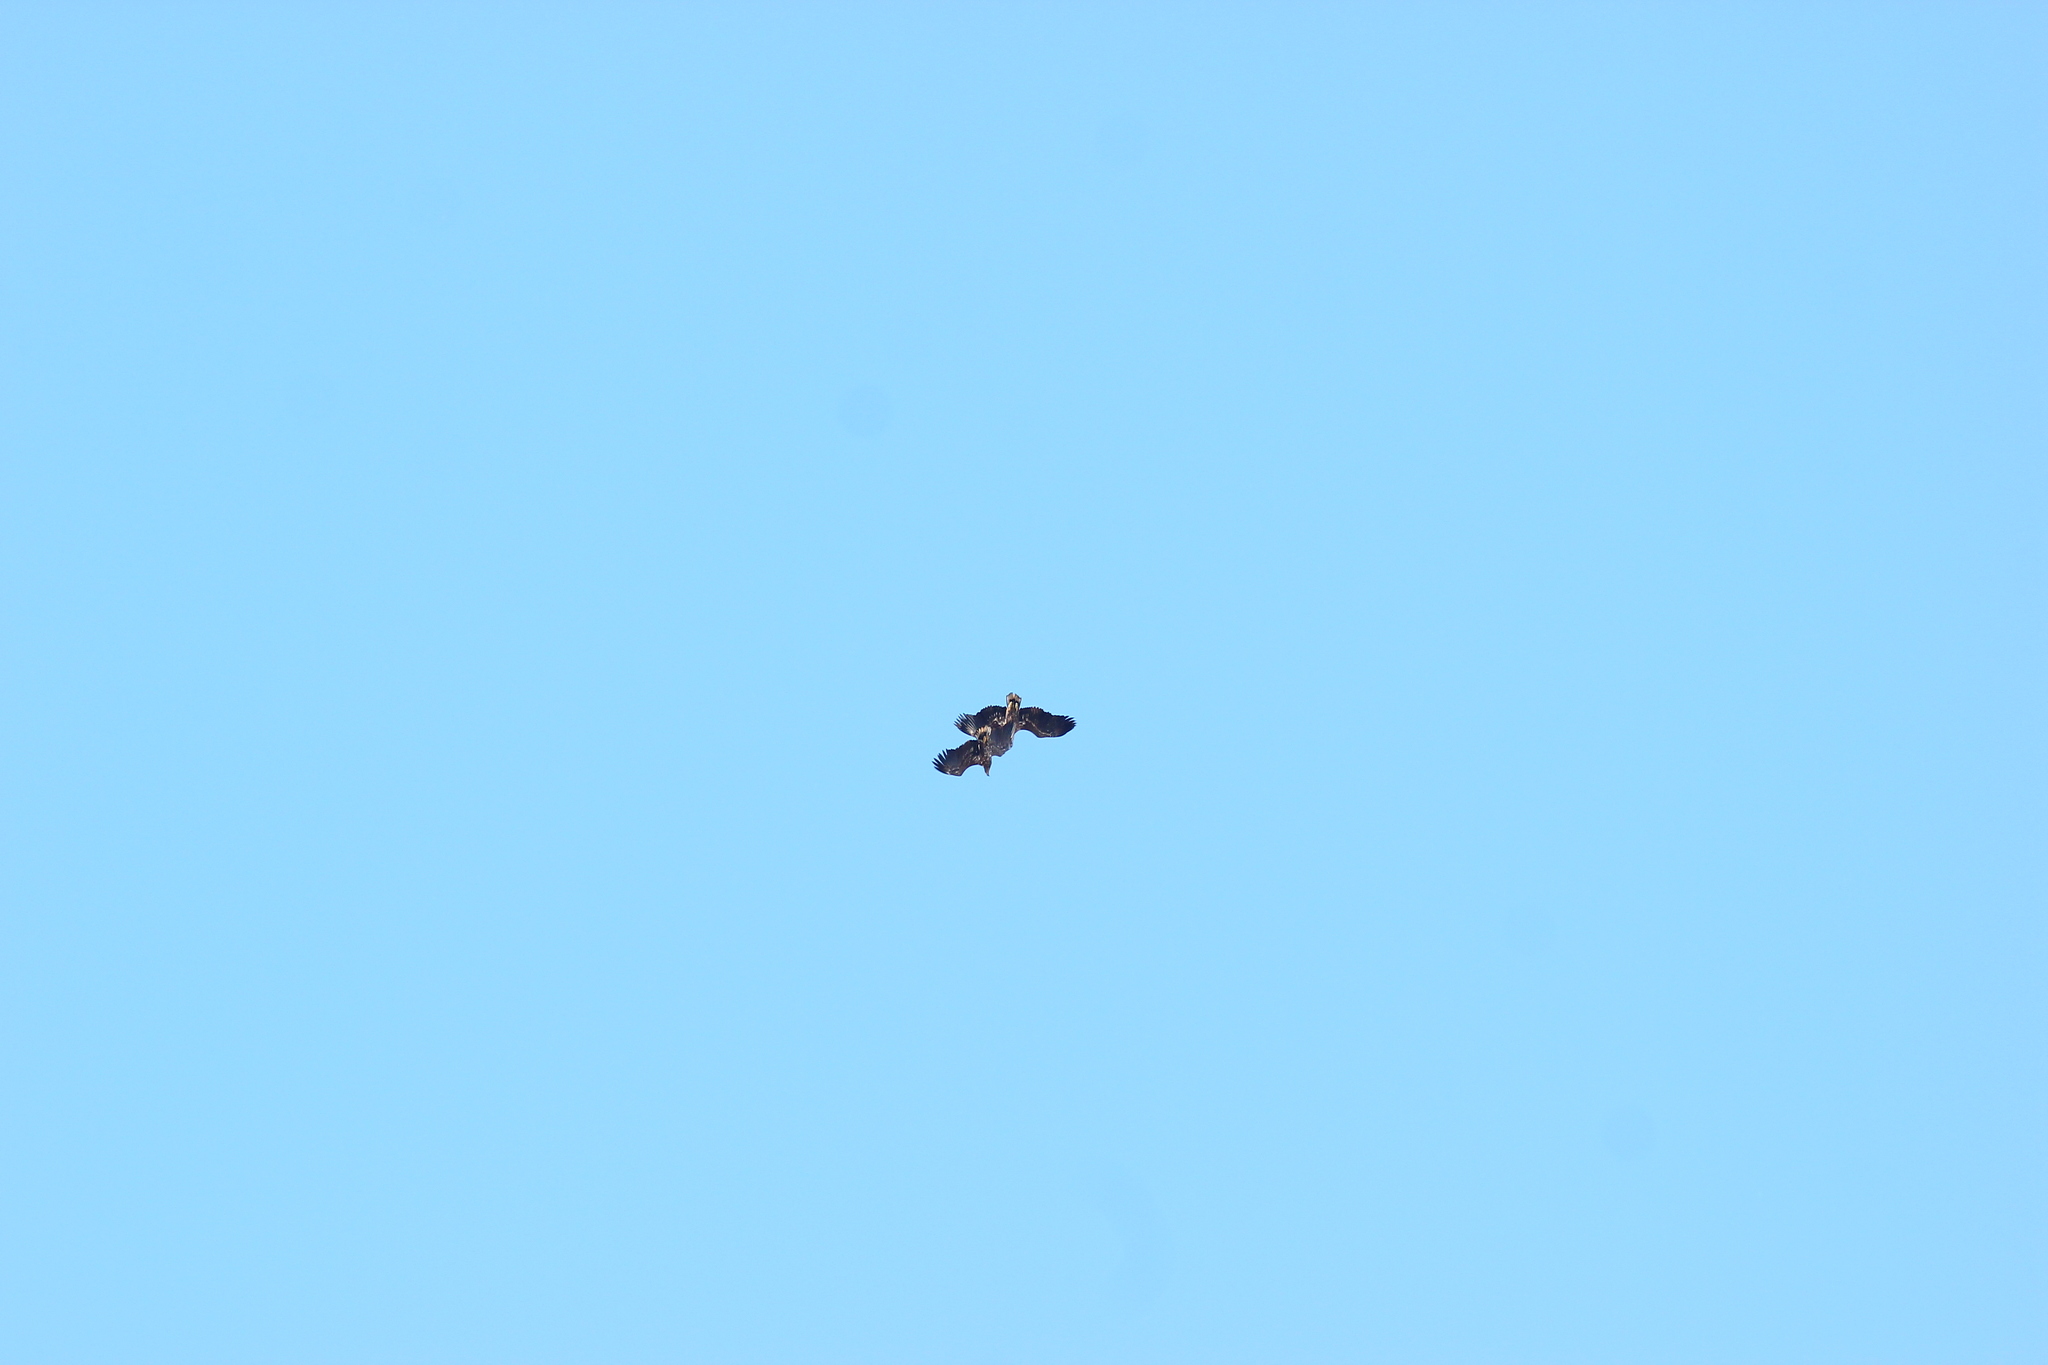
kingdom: Animalia
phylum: Chordata
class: Aves
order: Accipitriformes
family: Accipitridae
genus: Haliaeetus
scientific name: Haliaeetus albicilla
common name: White-tailed eagle
